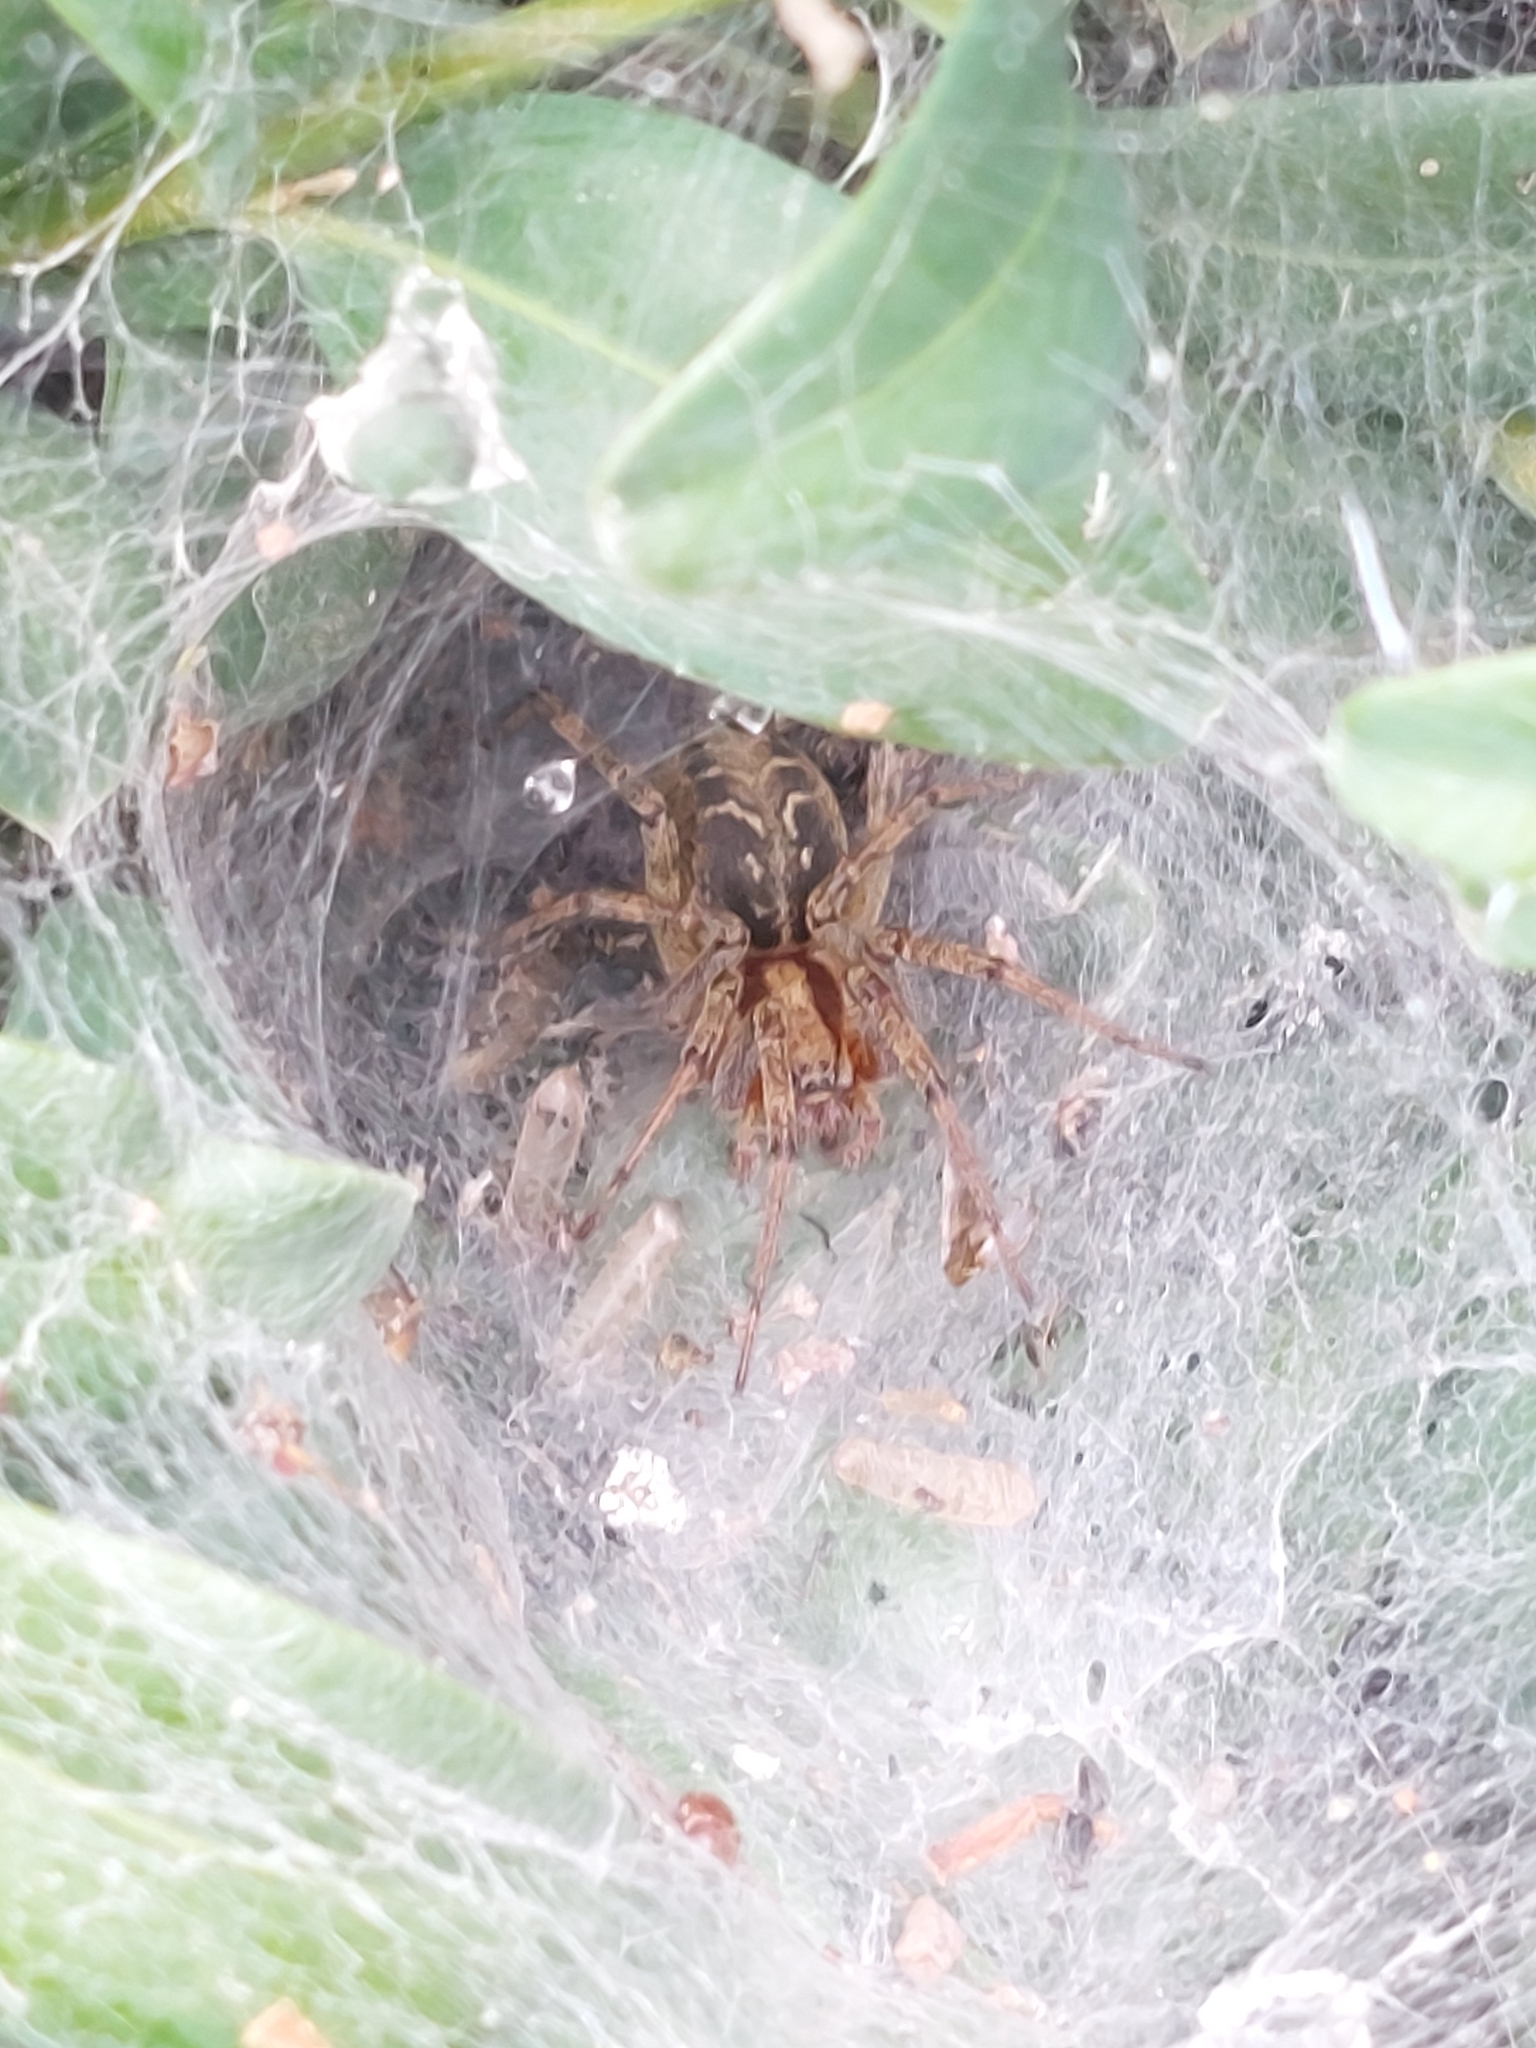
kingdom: Animalia
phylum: Arthropoda
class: Arachnida
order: Araneae
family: Agelenidae
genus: Agelena
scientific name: Agelena labyrinthica
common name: Labyrinth spider
